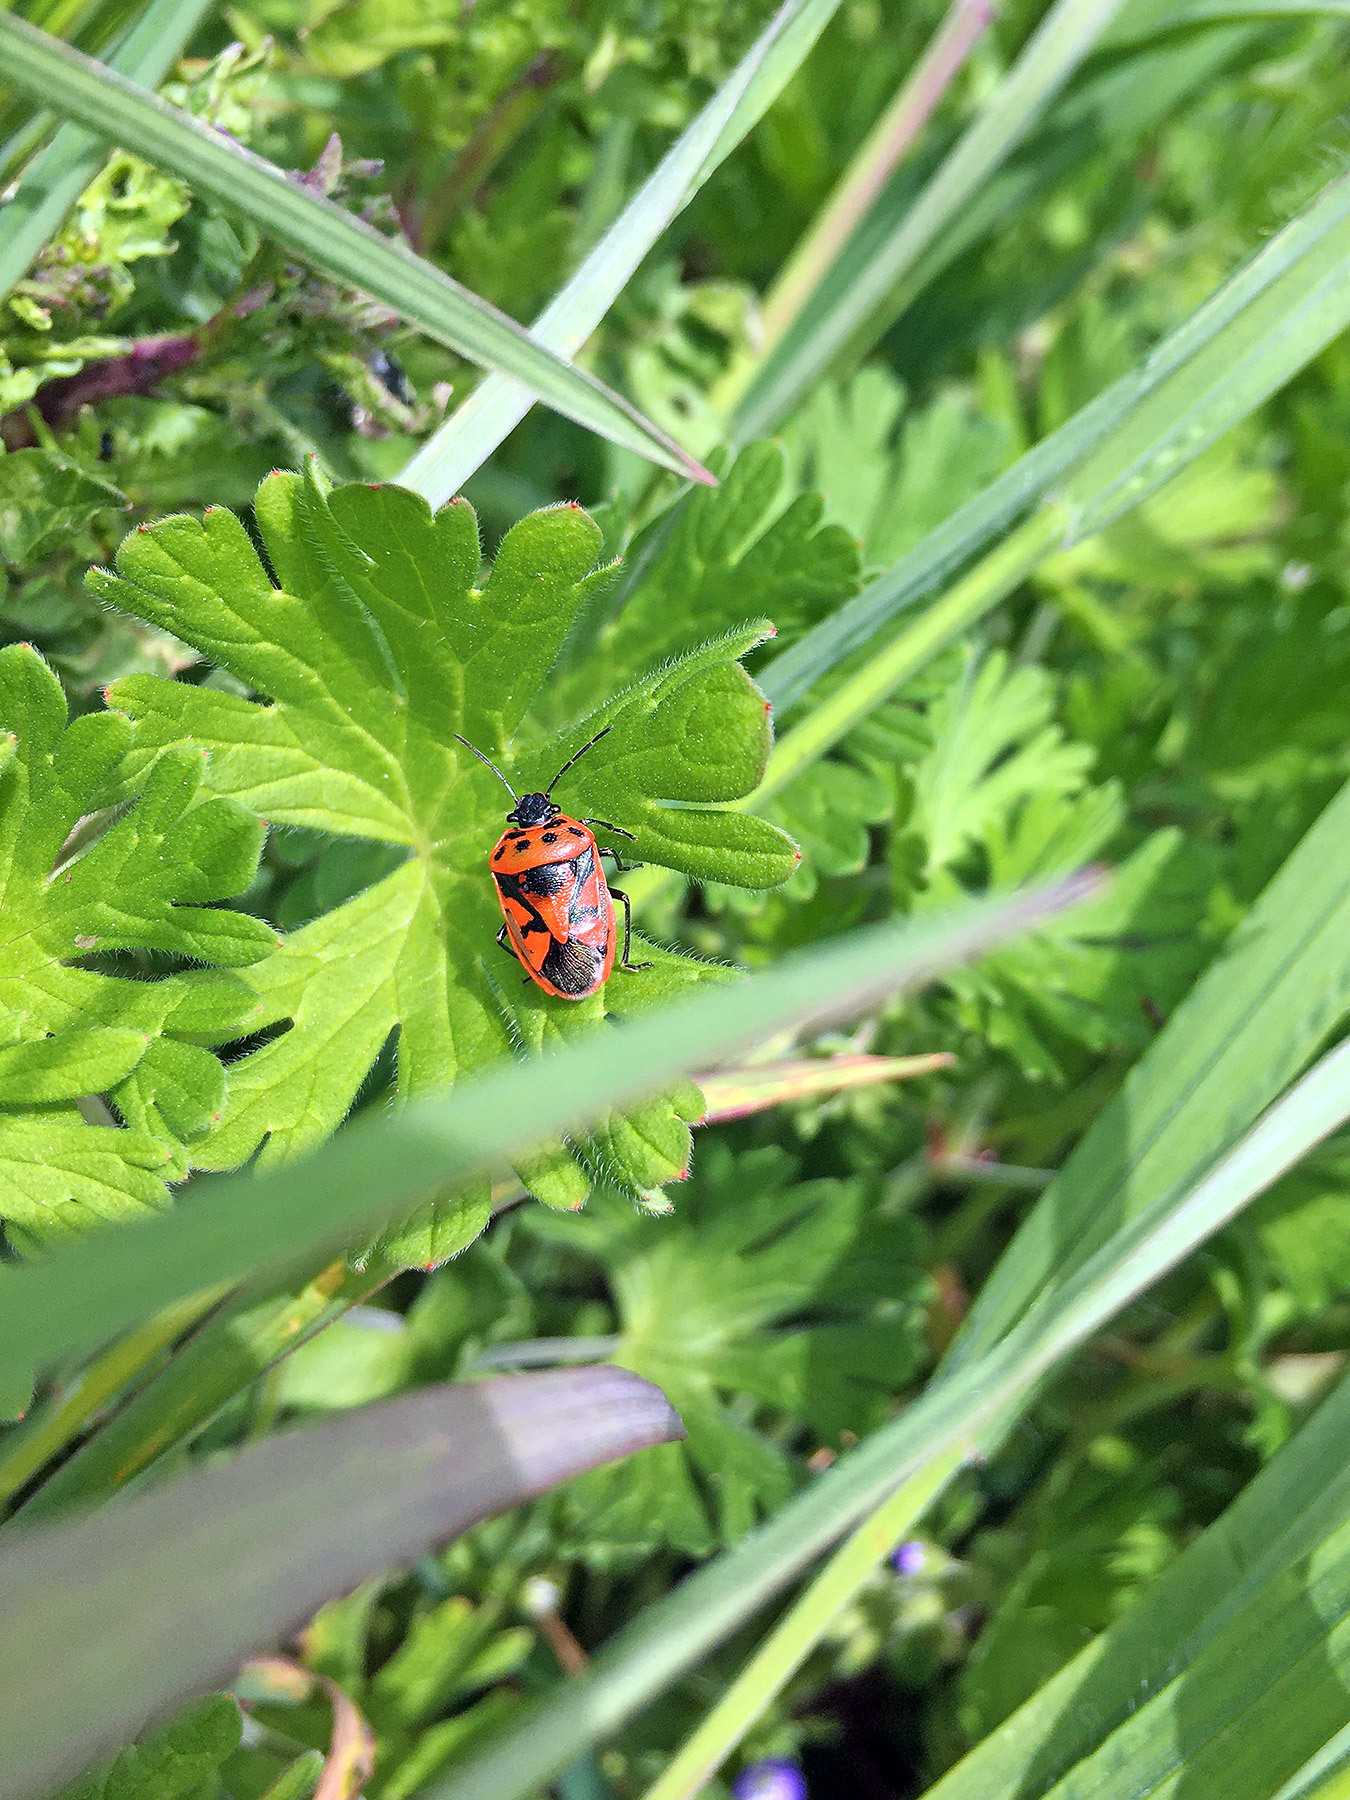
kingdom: Animalia
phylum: Arthropoda
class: Insecta
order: Hemiptera
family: Pentatomidae
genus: Eurydema
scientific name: Eurydema ornata
